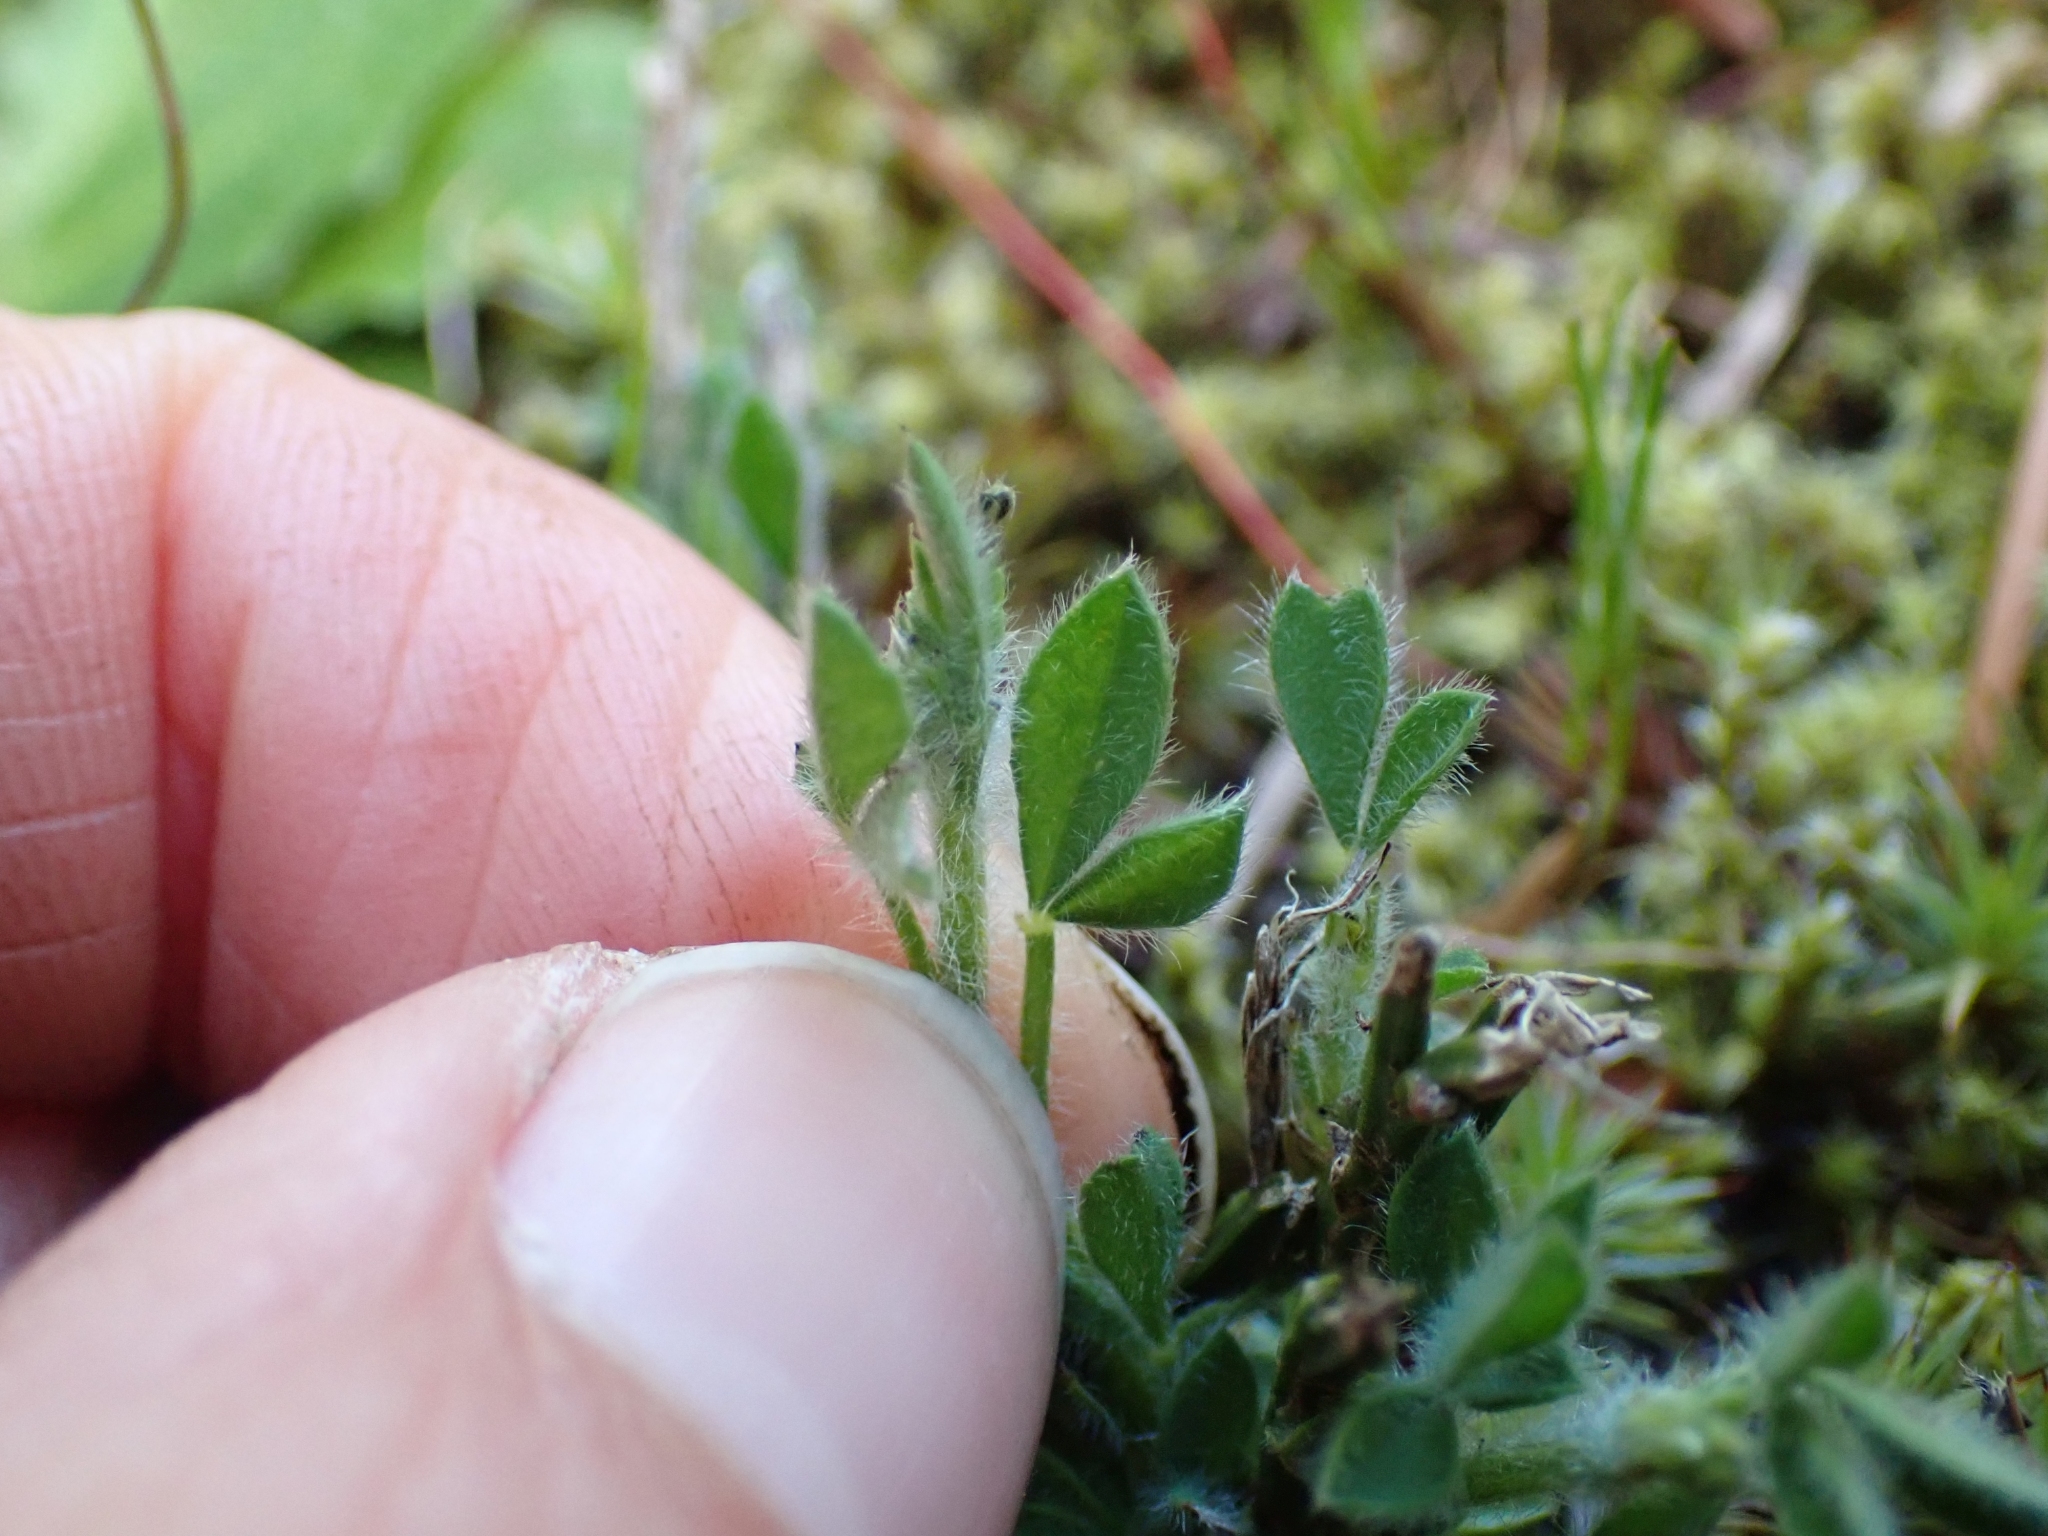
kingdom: Plantae
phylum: Tracheophyta
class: Magnoliopsida
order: Fabales
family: Fabaceae
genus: Cytisus
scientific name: Cytisus scoparius
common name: Scotch broom
